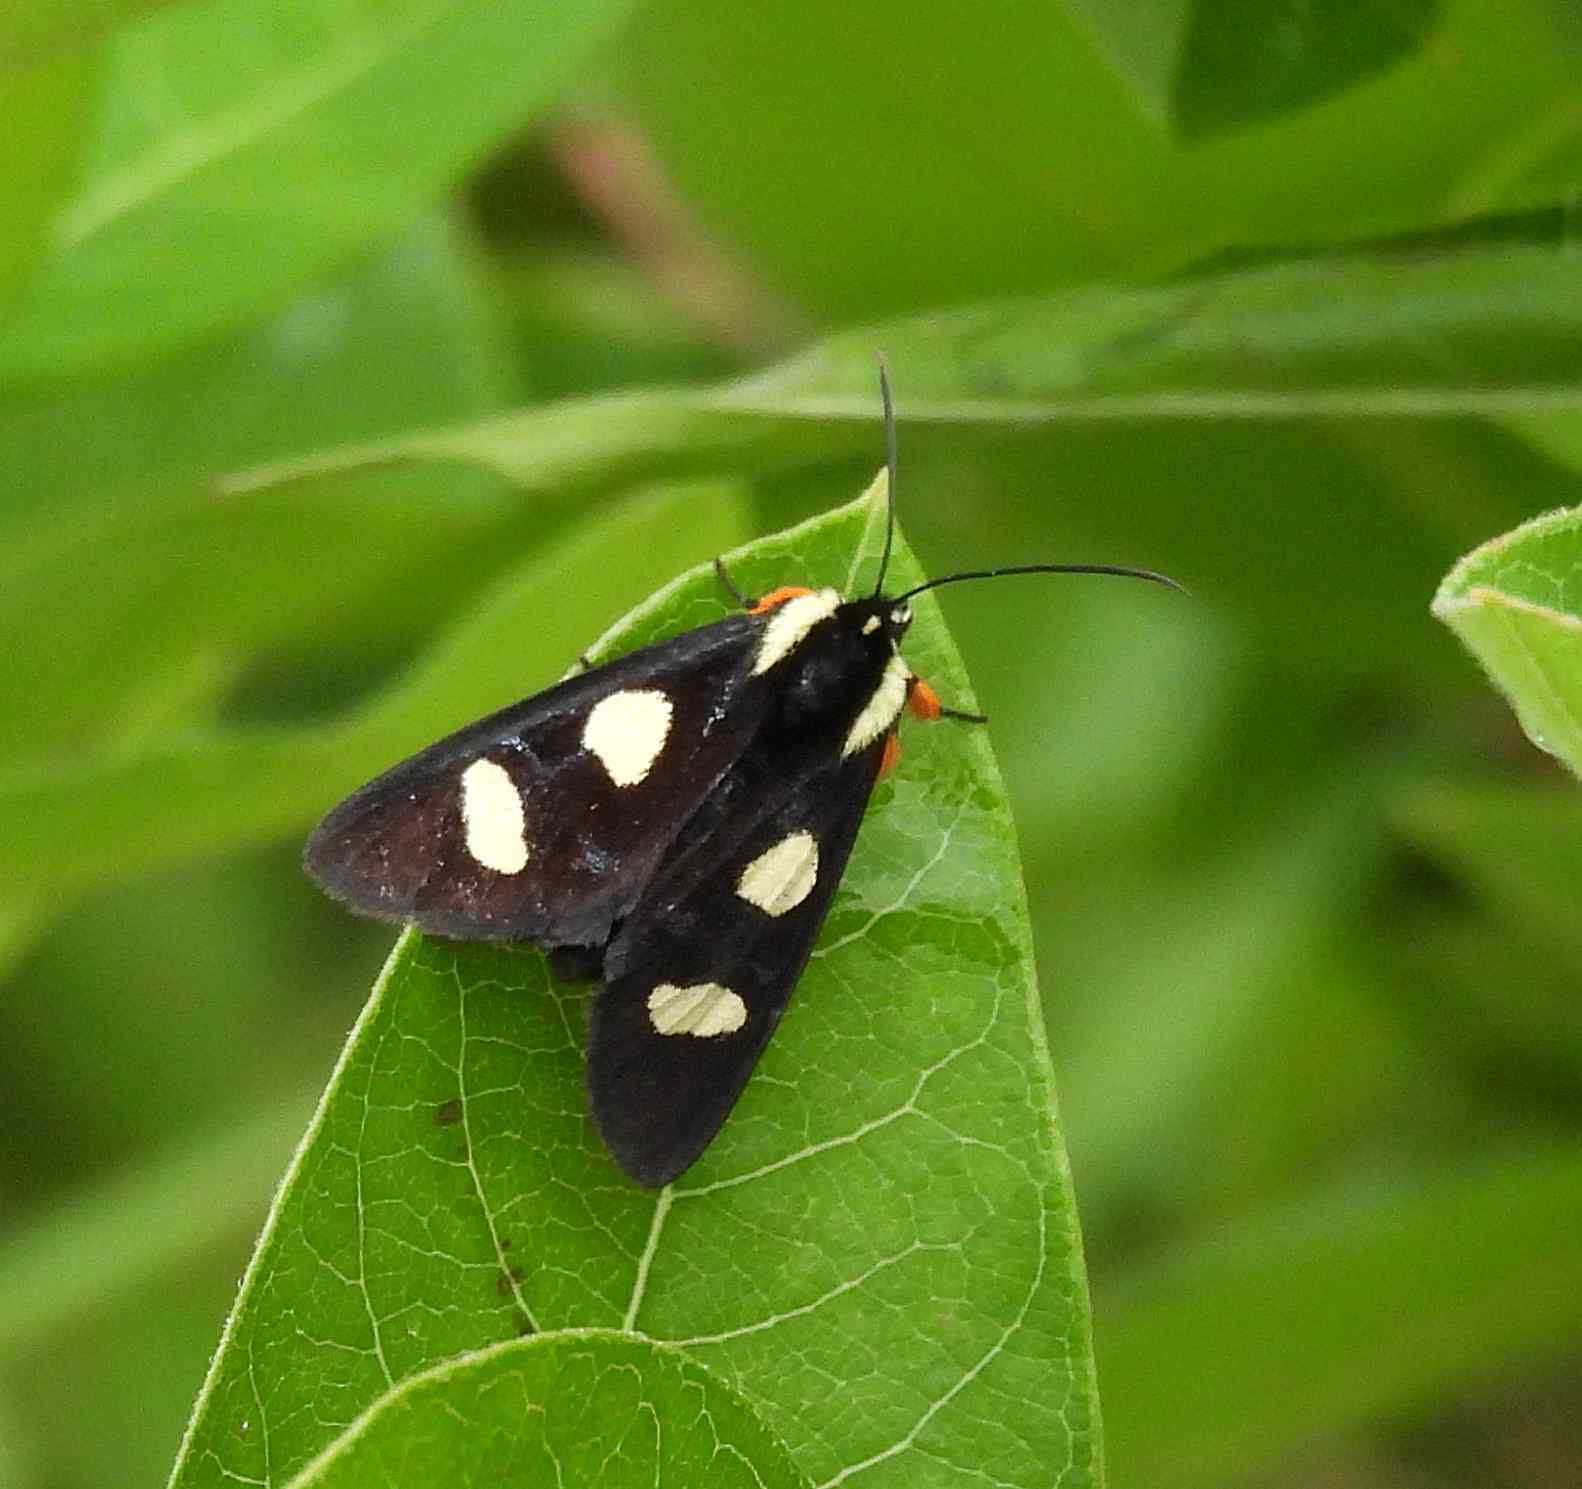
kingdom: Animalia
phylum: Arthropoda
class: Insecta
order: Lepidoptera
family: Noctuidae
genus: Alypia
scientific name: Alypia octomaculata
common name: Eight-spotted forester
